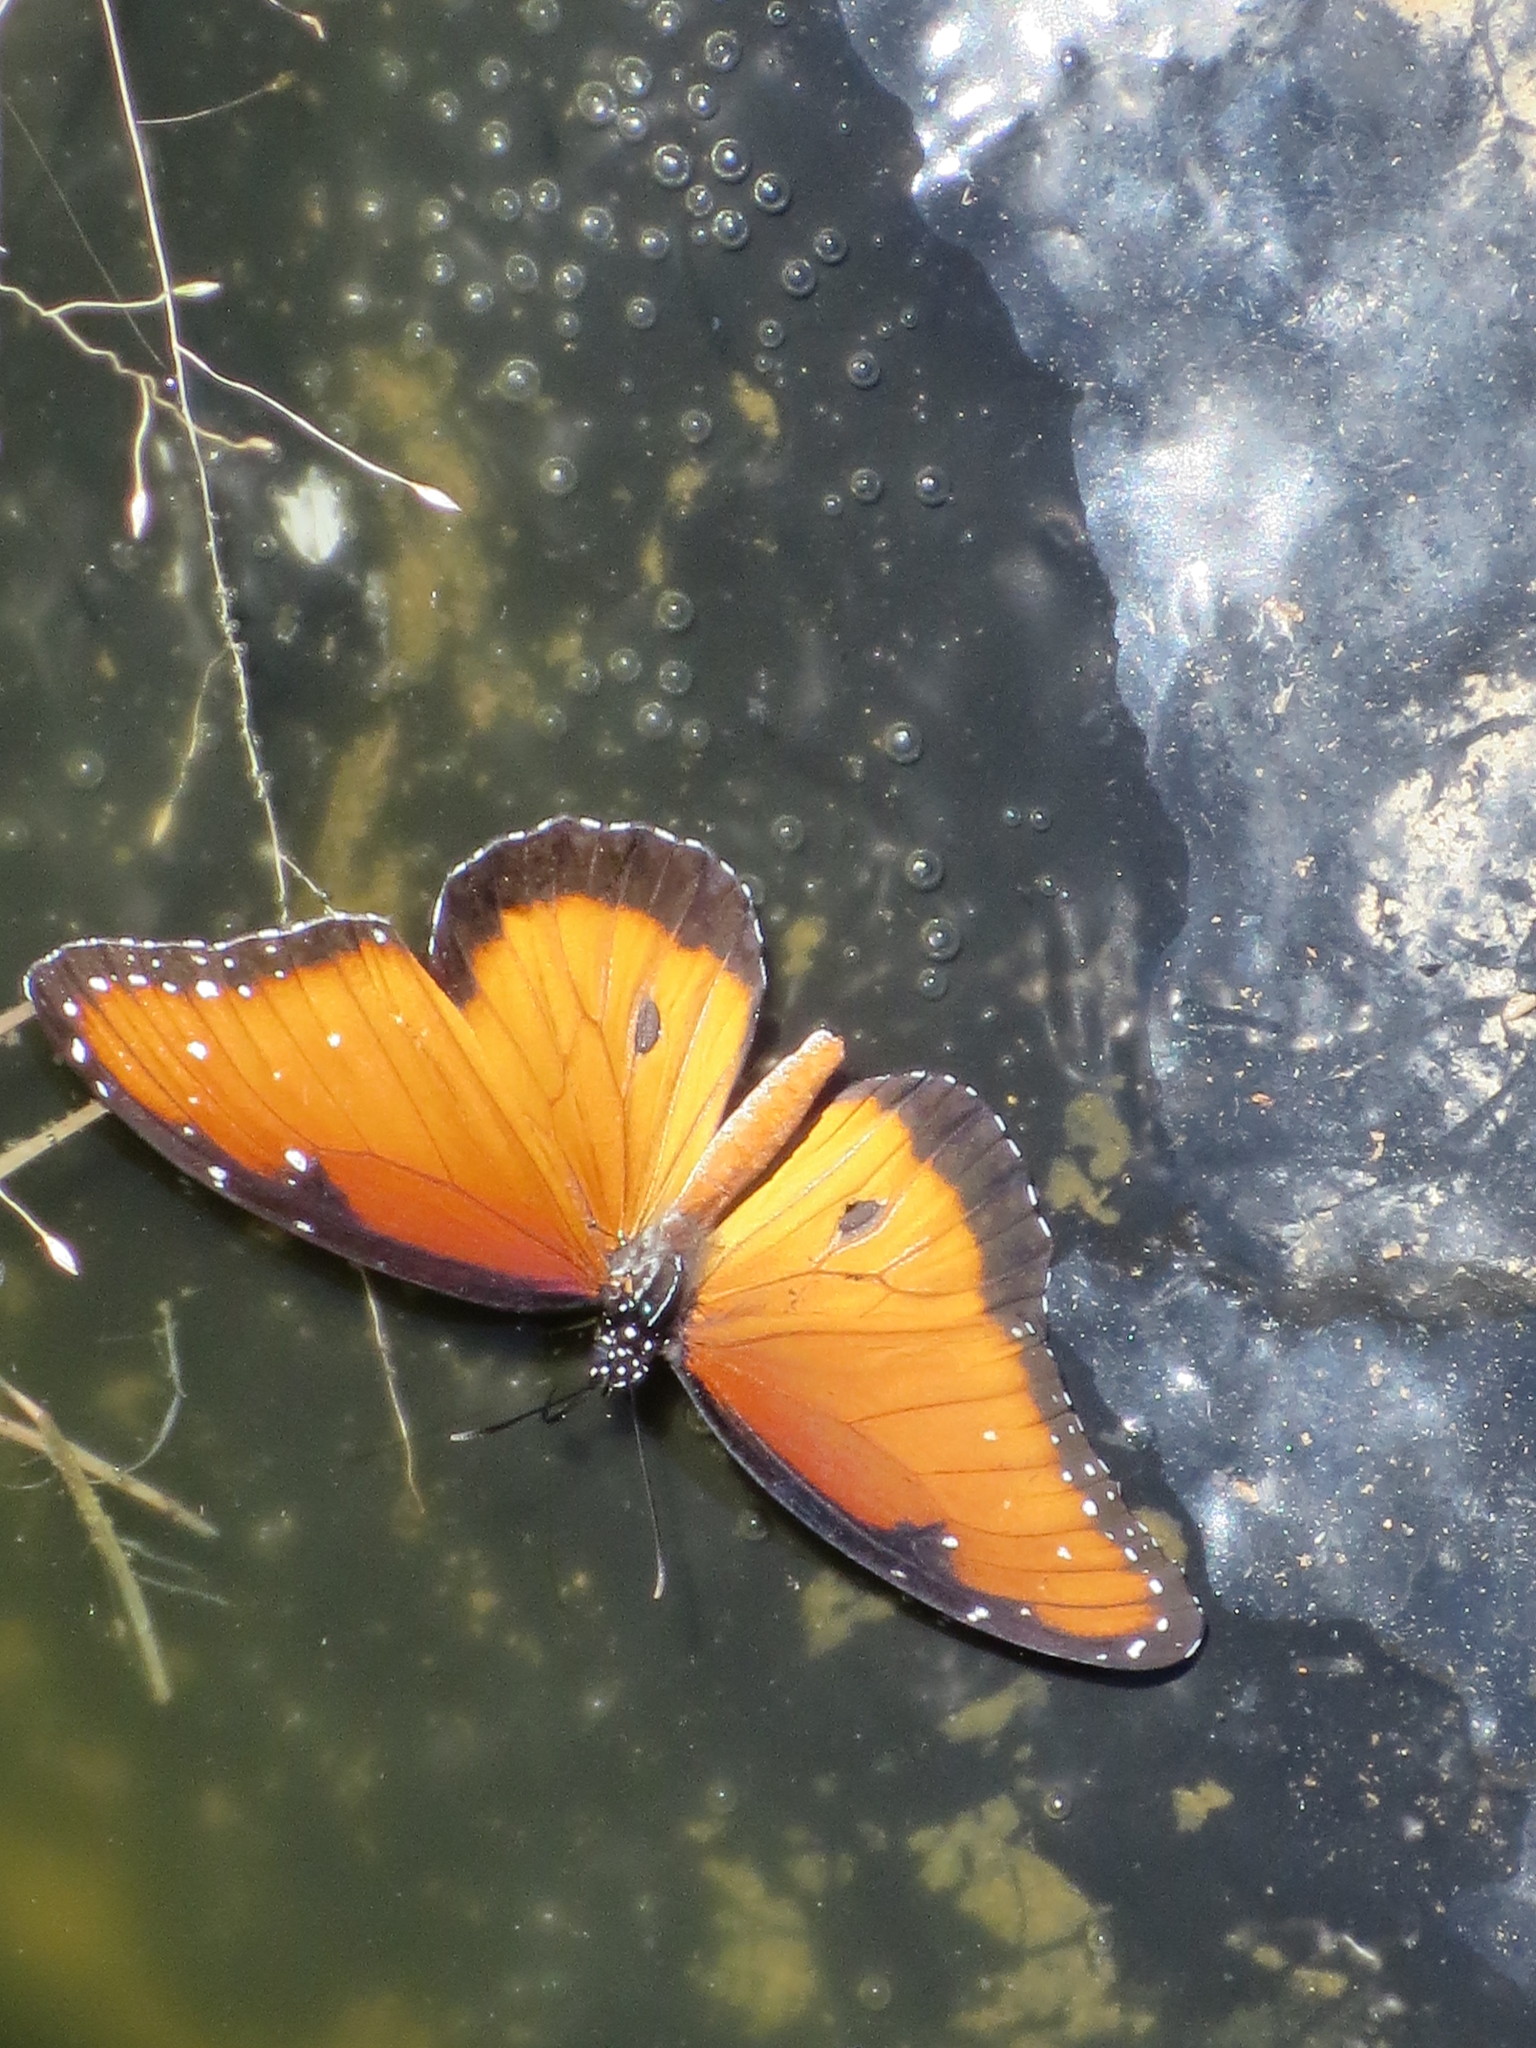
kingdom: Animalia
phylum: Arthropoda
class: Insecta
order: Lepidoptera
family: Nymphalidae
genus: Danaus
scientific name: Danaus gilippus
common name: Queen
